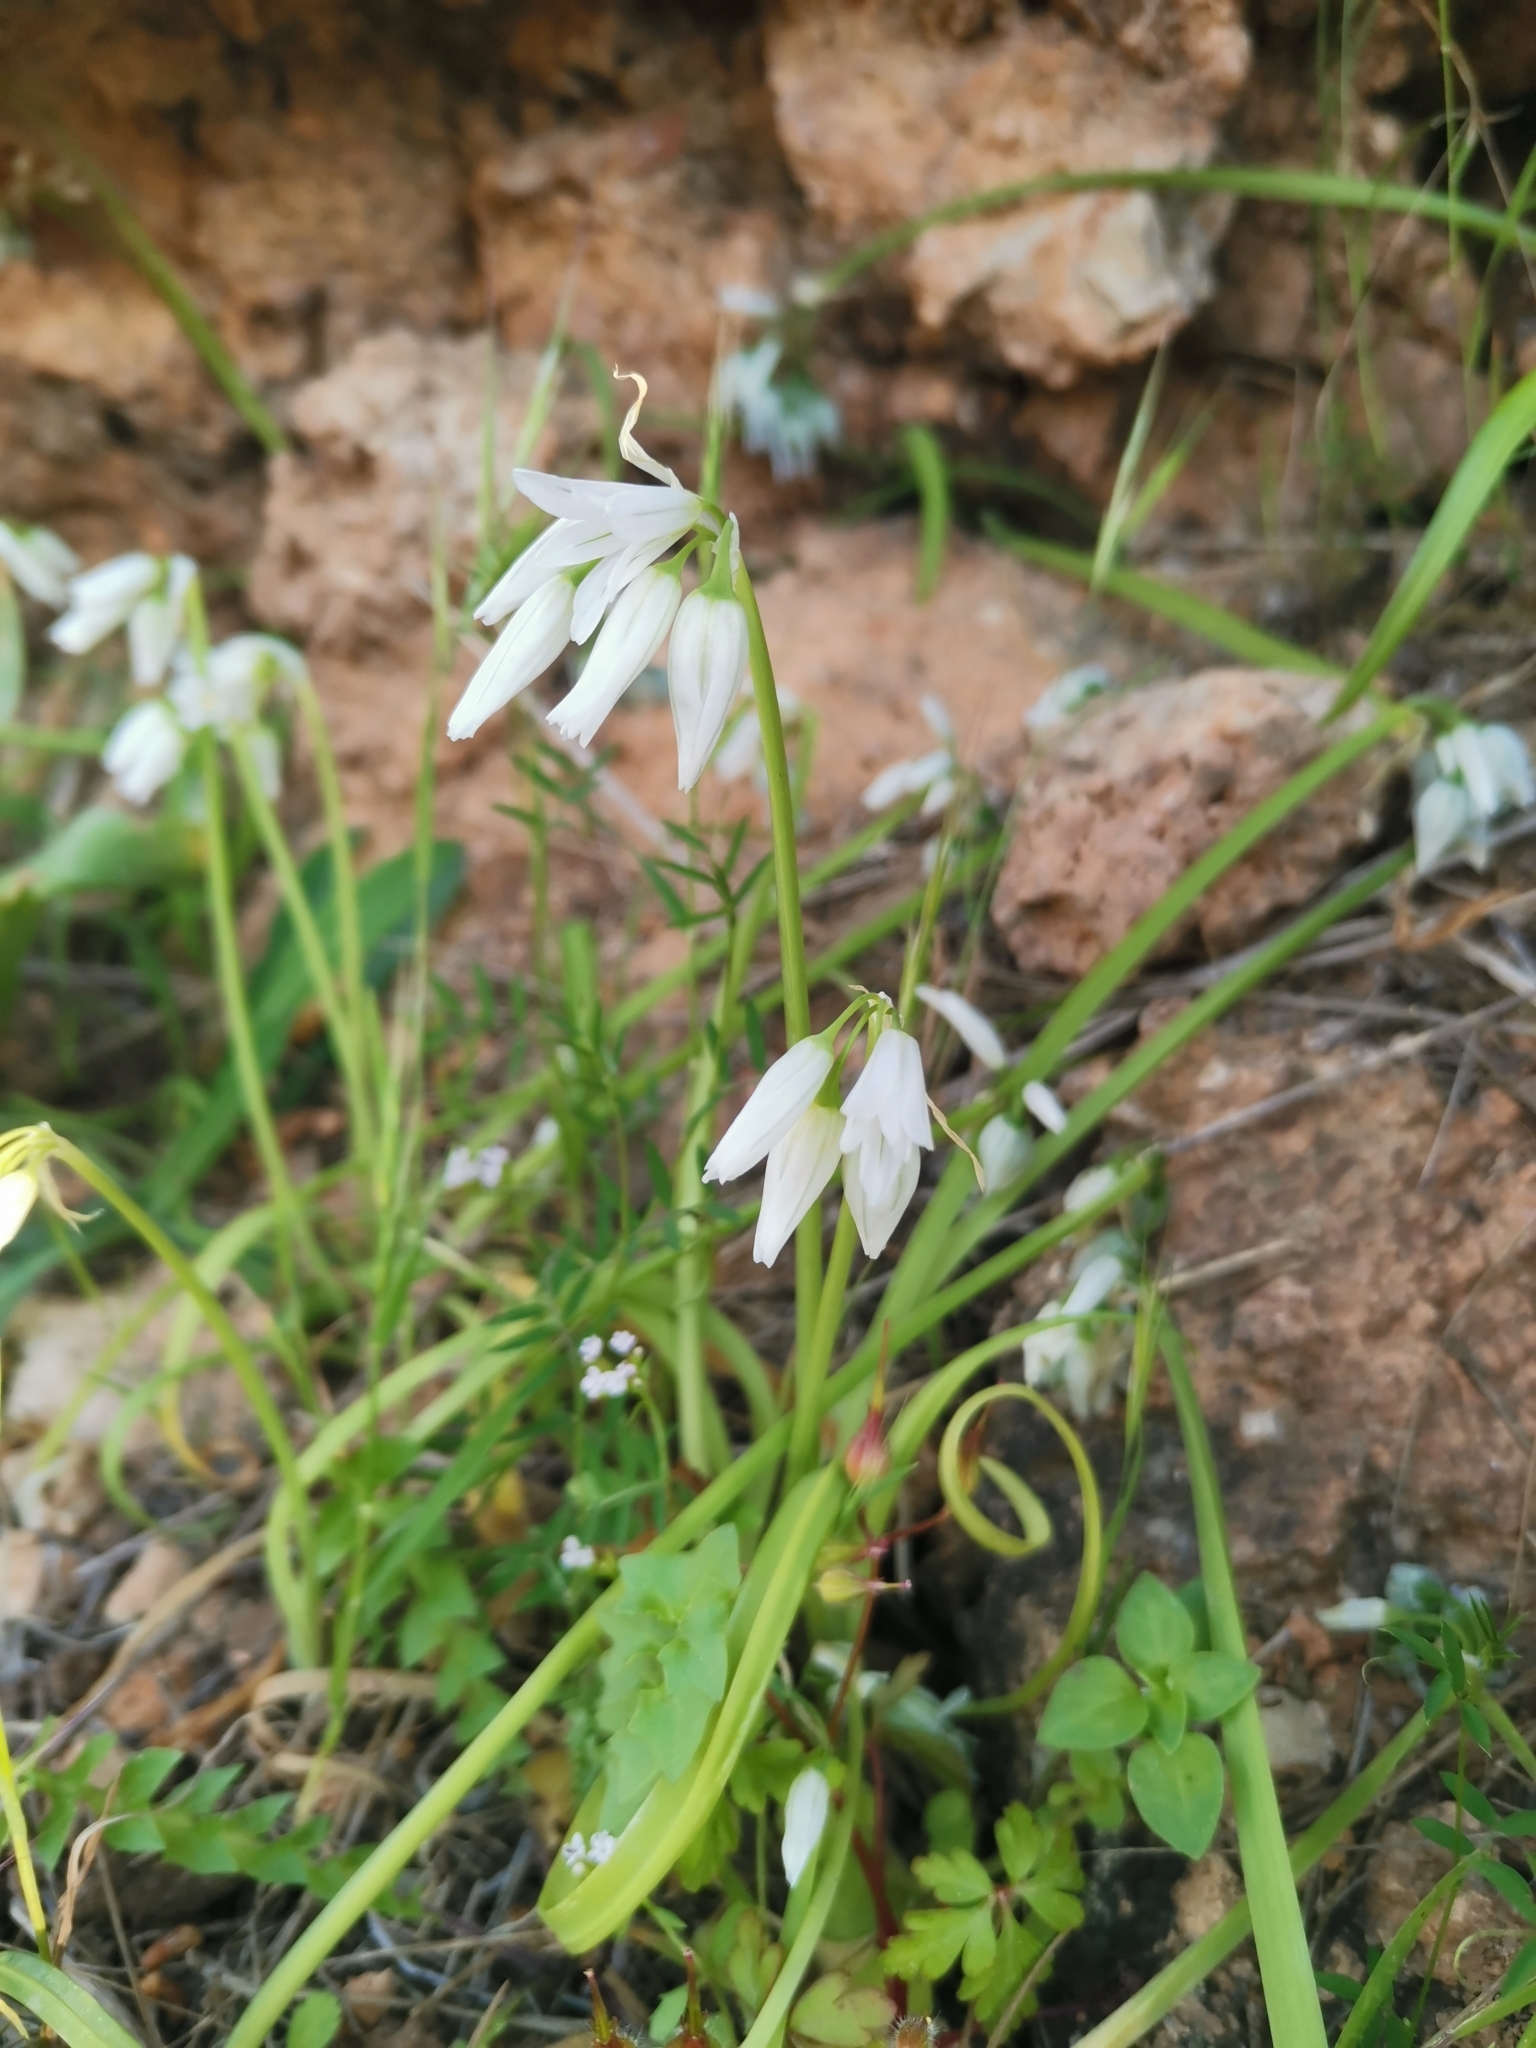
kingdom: Plantae
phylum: Tracheophyta
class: Liliopsida
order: Asparagales
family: Amaryllidaceae
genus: Allium
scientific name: Allium triquetrum
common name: Three-cornered garlic
